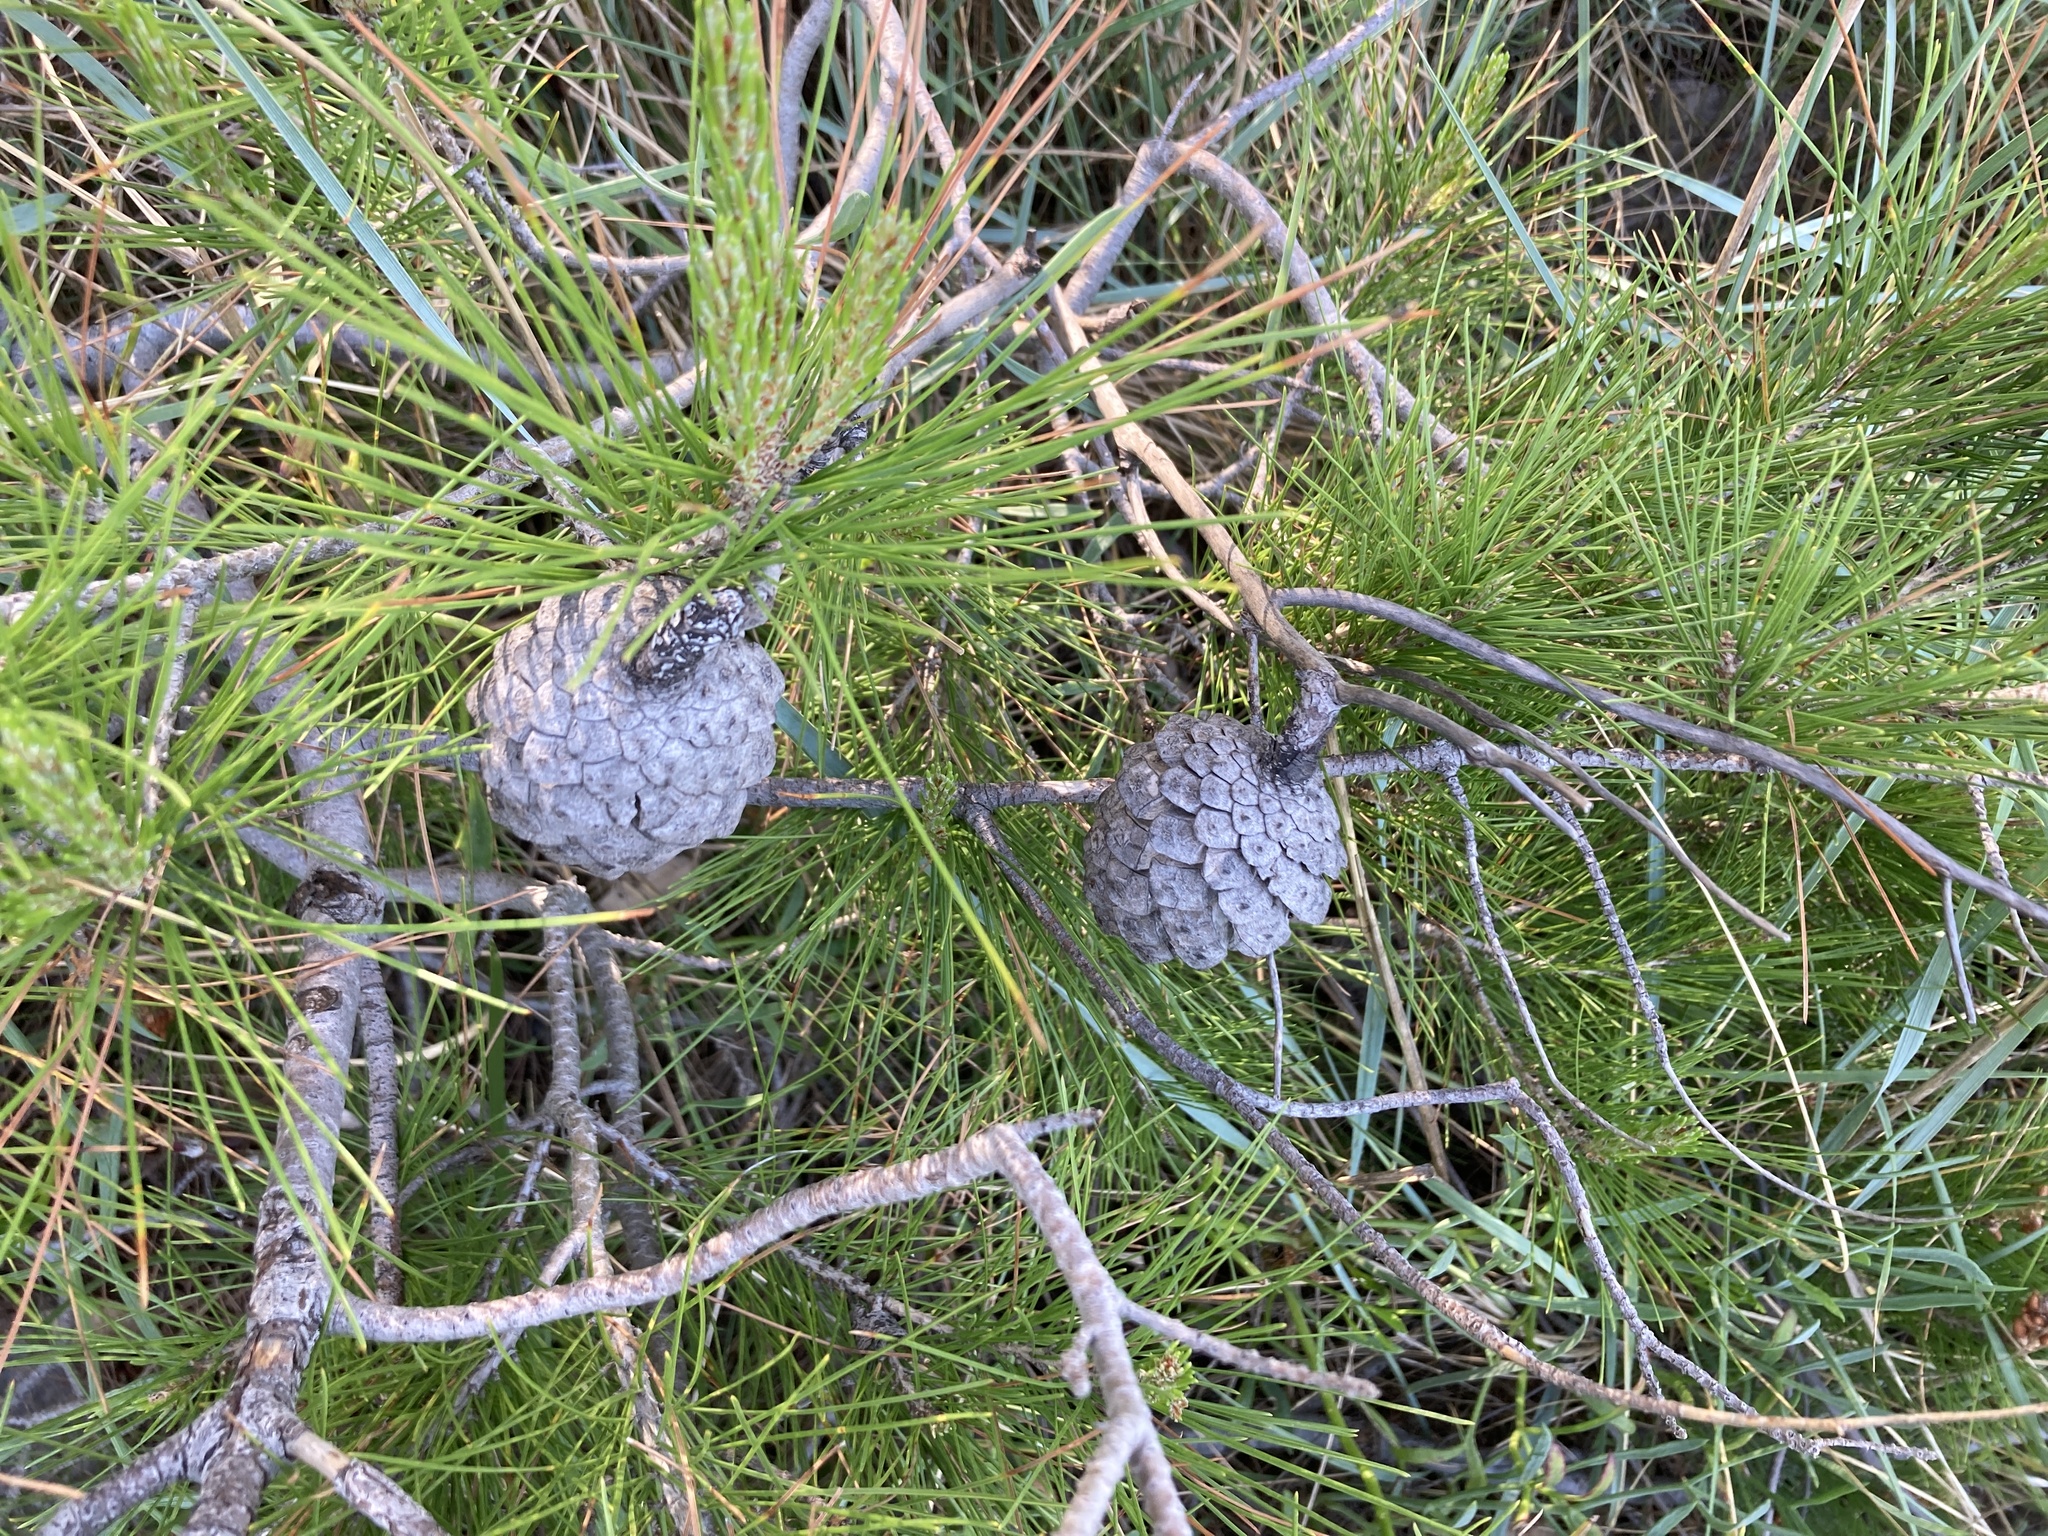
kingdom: Plantae
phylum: Tracheophyta
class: Pinopsida
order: Pinales
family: Pinaceae
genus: Pinus
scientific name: Pinus halepensis
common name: Aleppo pine
